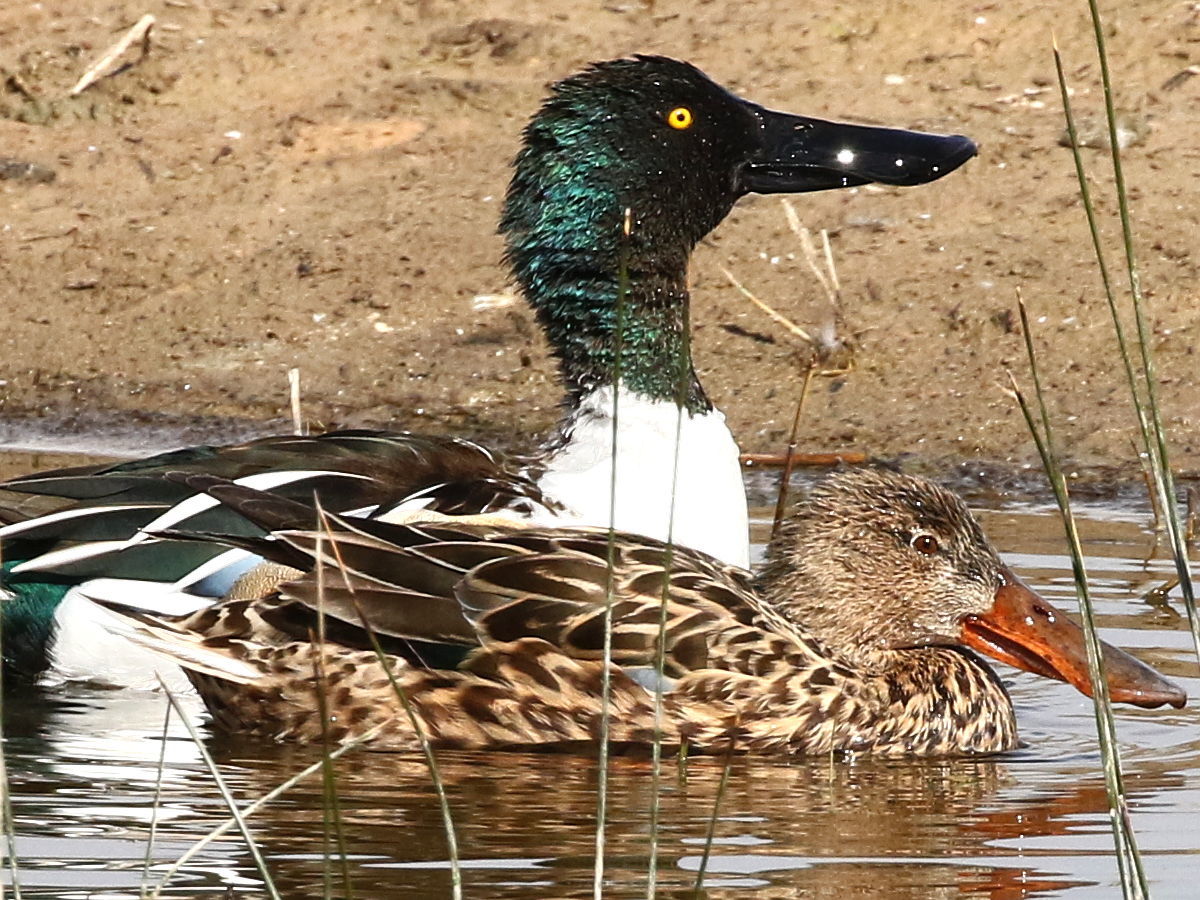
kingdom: Animalia
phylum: Chordata
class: Aves
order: Anseriformes
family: Anatidae
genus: Spatula
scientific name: Spatula clypeata
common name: Northern shoveler
